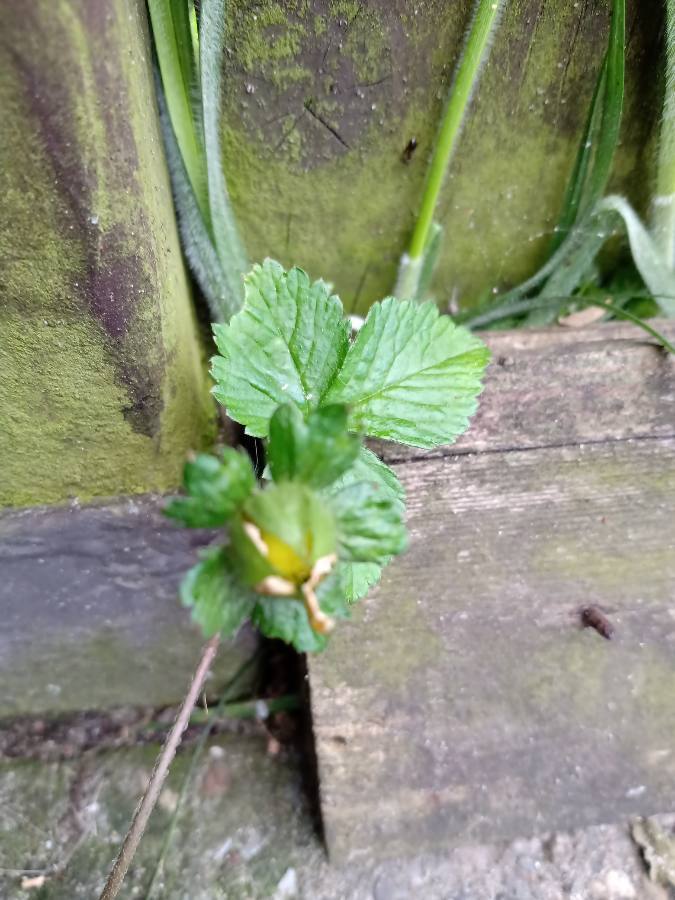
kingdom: Animalia
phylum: Arthropoda
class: Insecta
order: Hymenoptera
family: Vespidae
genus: Vespula
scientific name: Vespula vulgaris
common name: Common wasp
